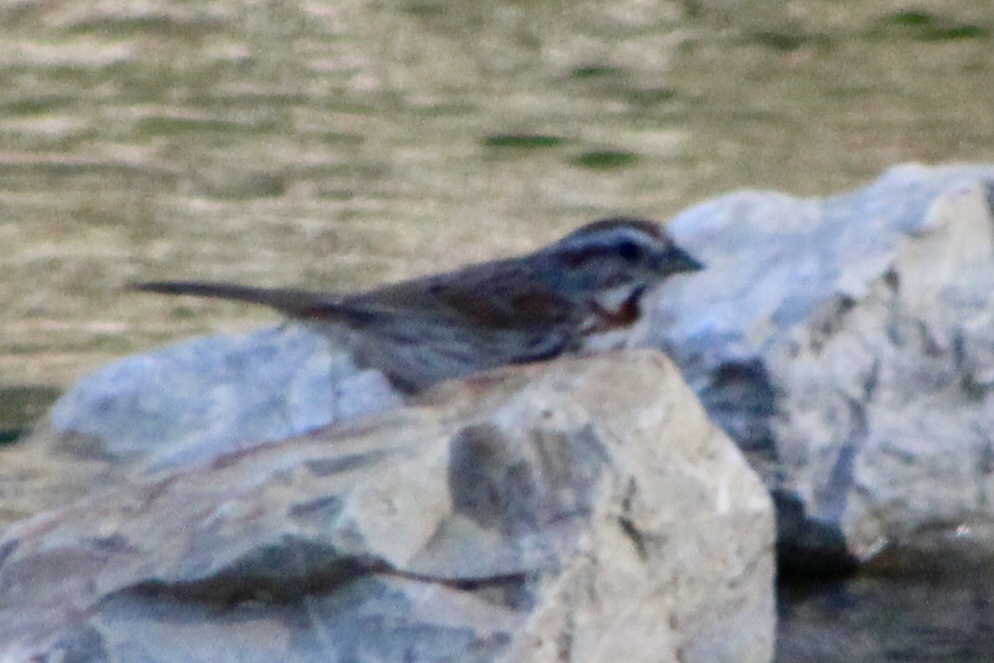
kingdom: Animalia
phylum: Chordata
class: Aves
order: Passeriformes
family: Passerellidae
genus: Melospiza
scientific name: Melospiza melodia
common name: Song sparrow
